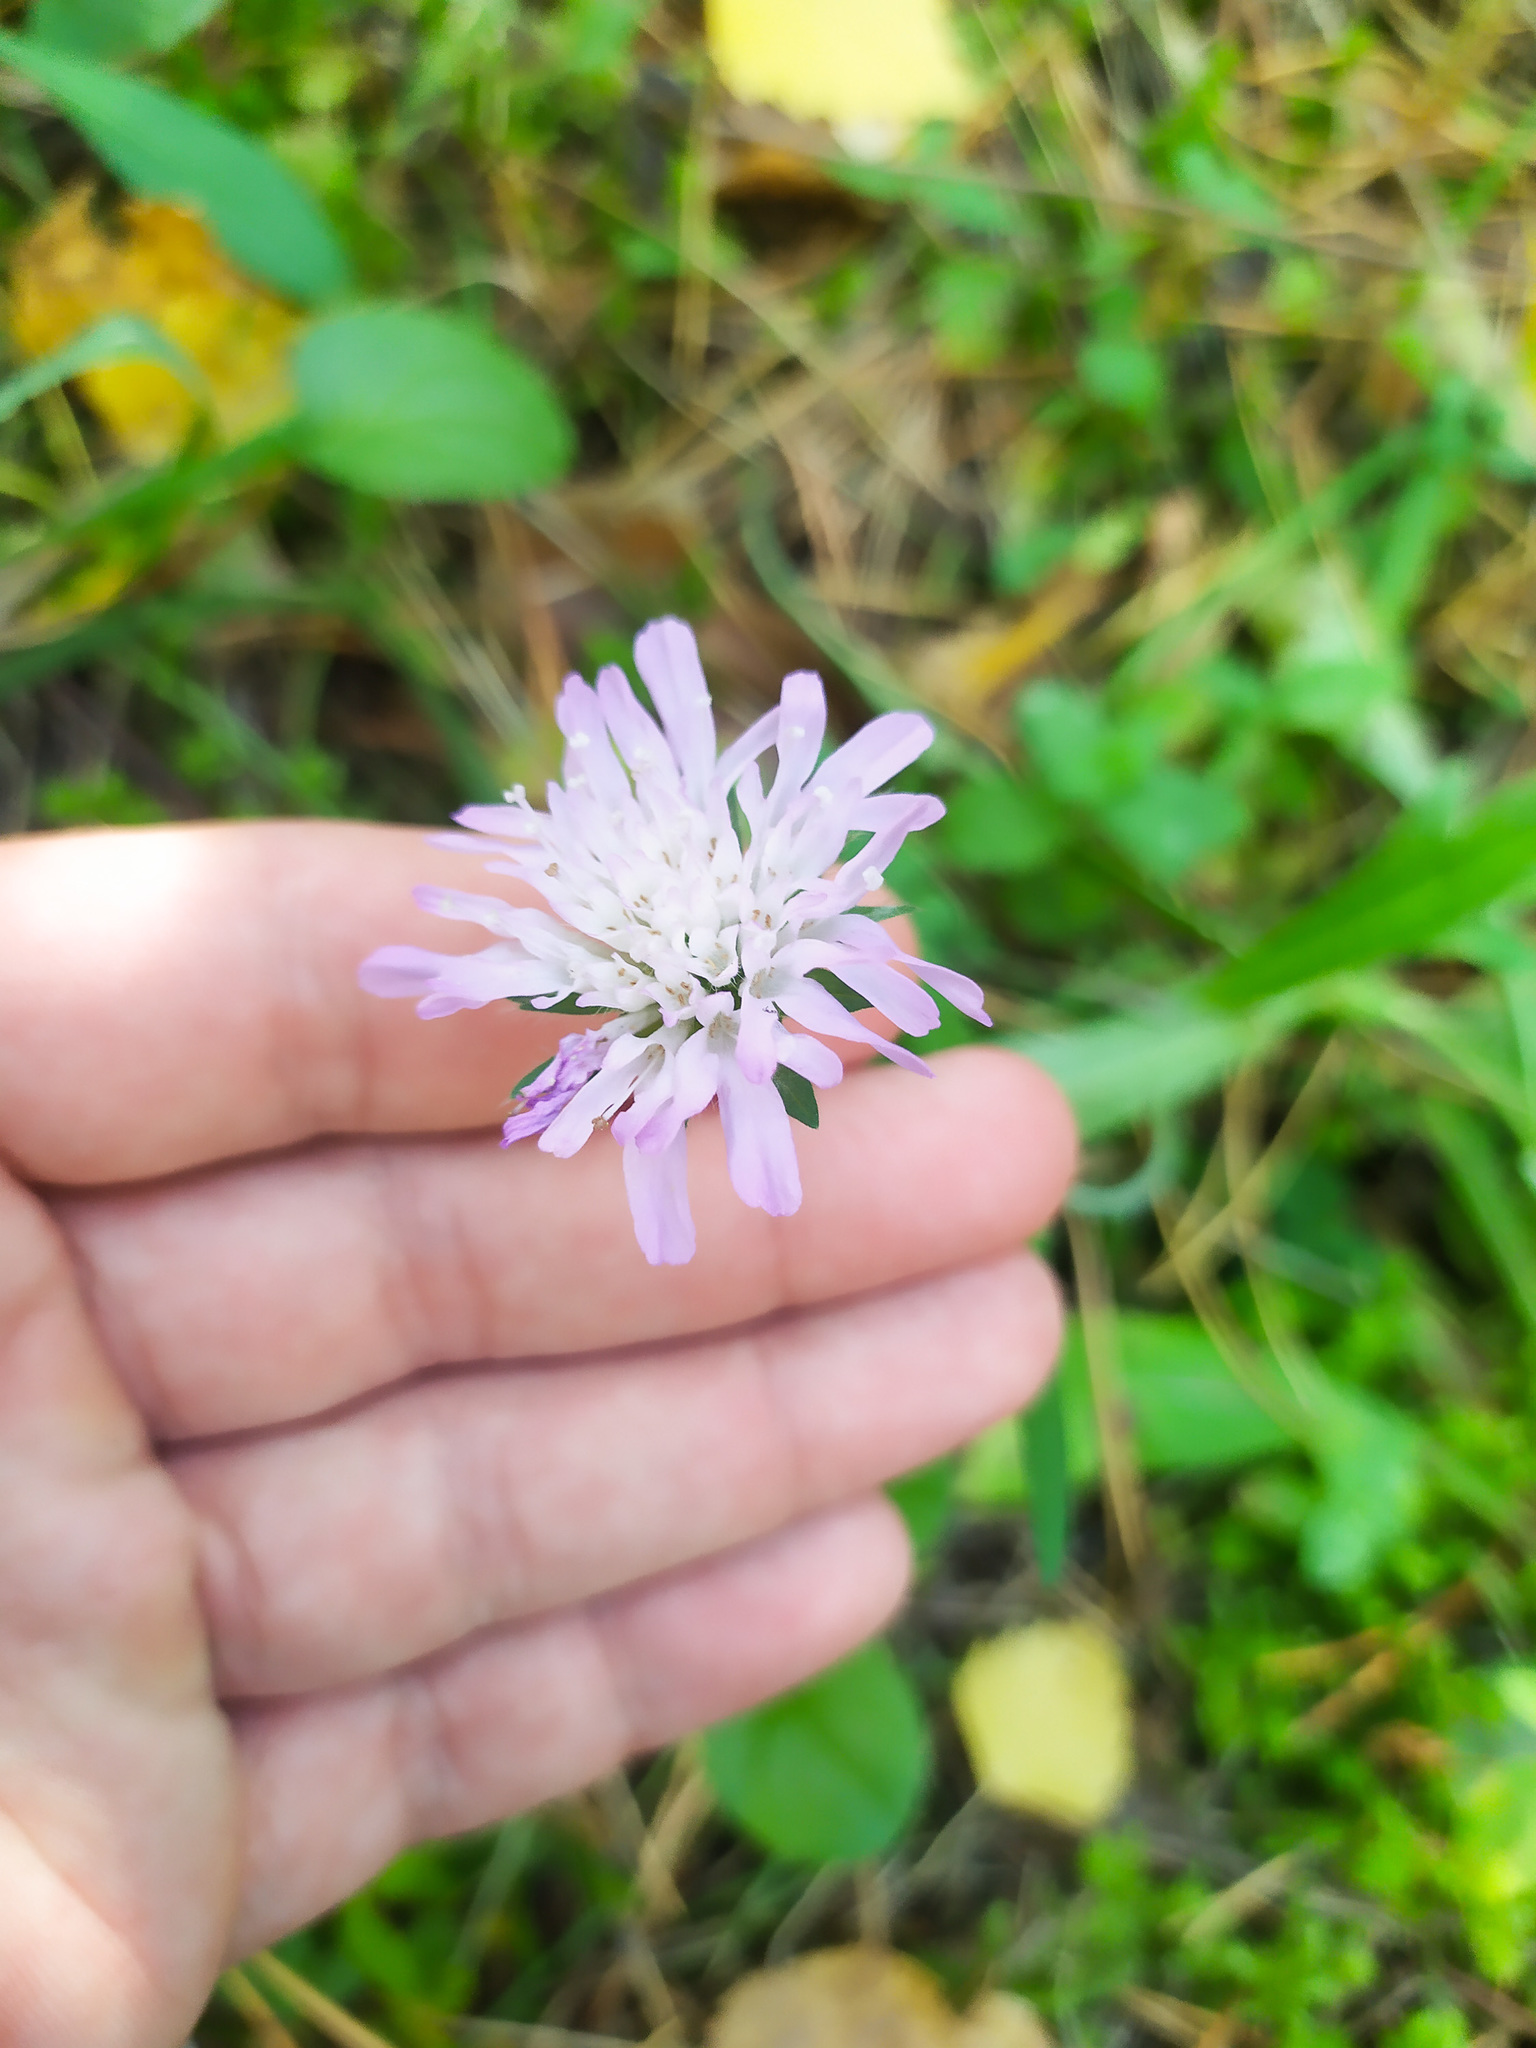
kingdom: Plantae
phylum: Tracheophyta
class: Magnoliopsida
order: Dipsacales
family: Caprifoliaceae
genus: Knautia
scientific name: Knautia arvensis
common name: Field scabiosa
